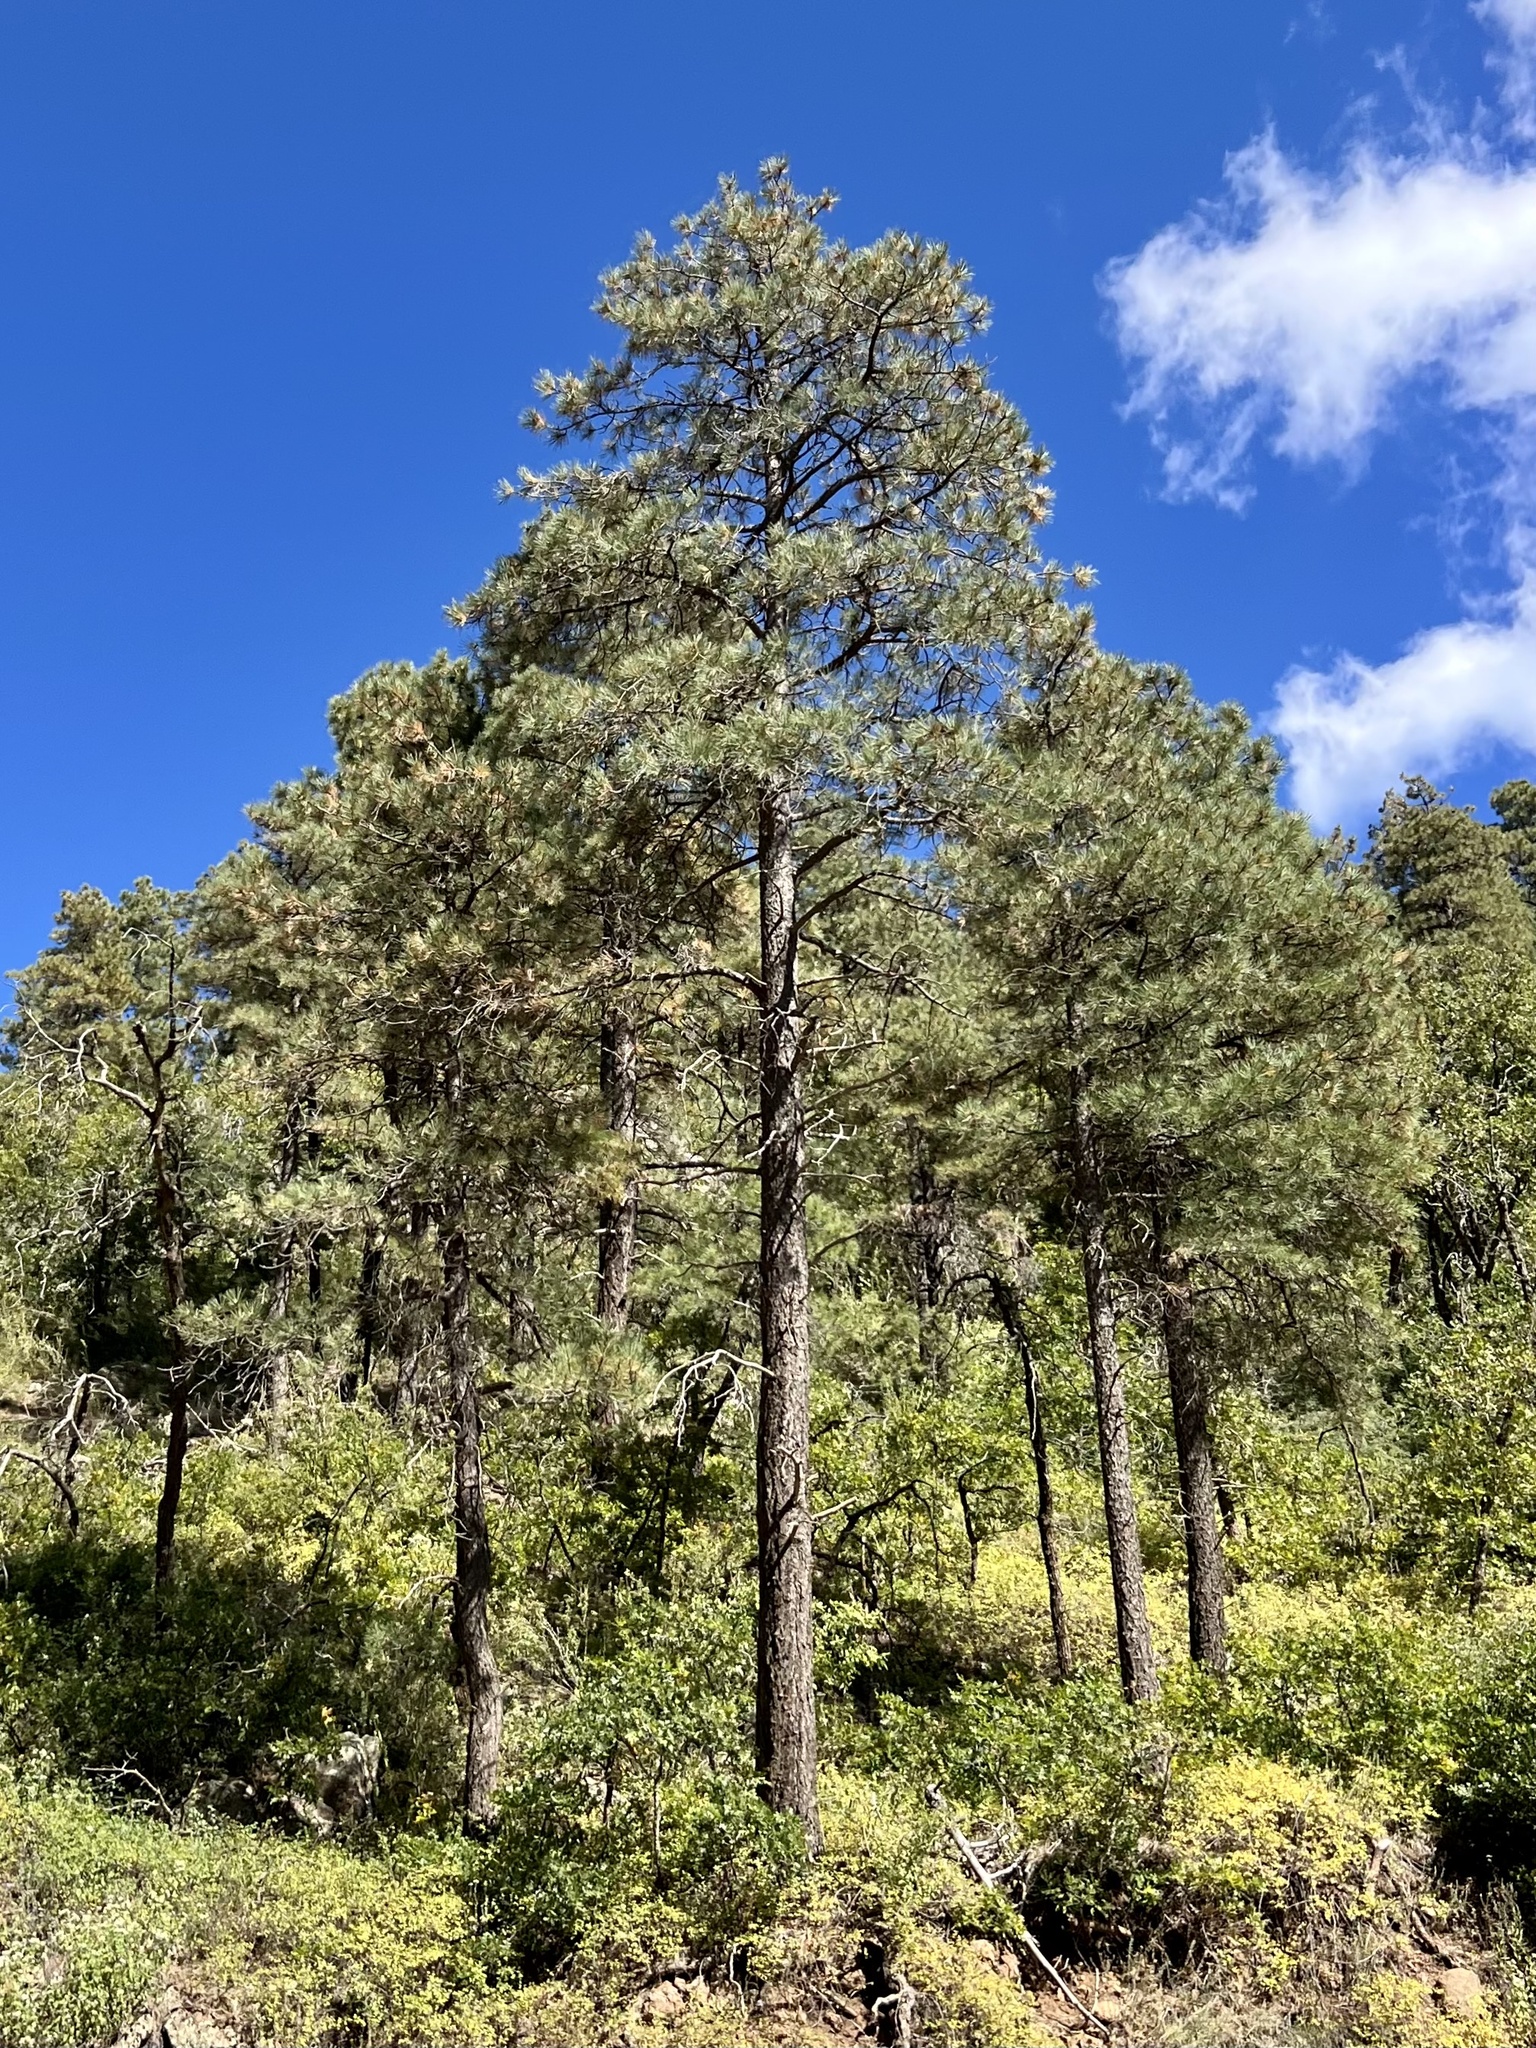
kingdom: Plantae
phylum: Tracheophyta
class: Pinopsida
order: Pinales
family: Pinaceae
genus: Pinus
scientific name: Pinus ponderosa
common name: Western yellow-pine
